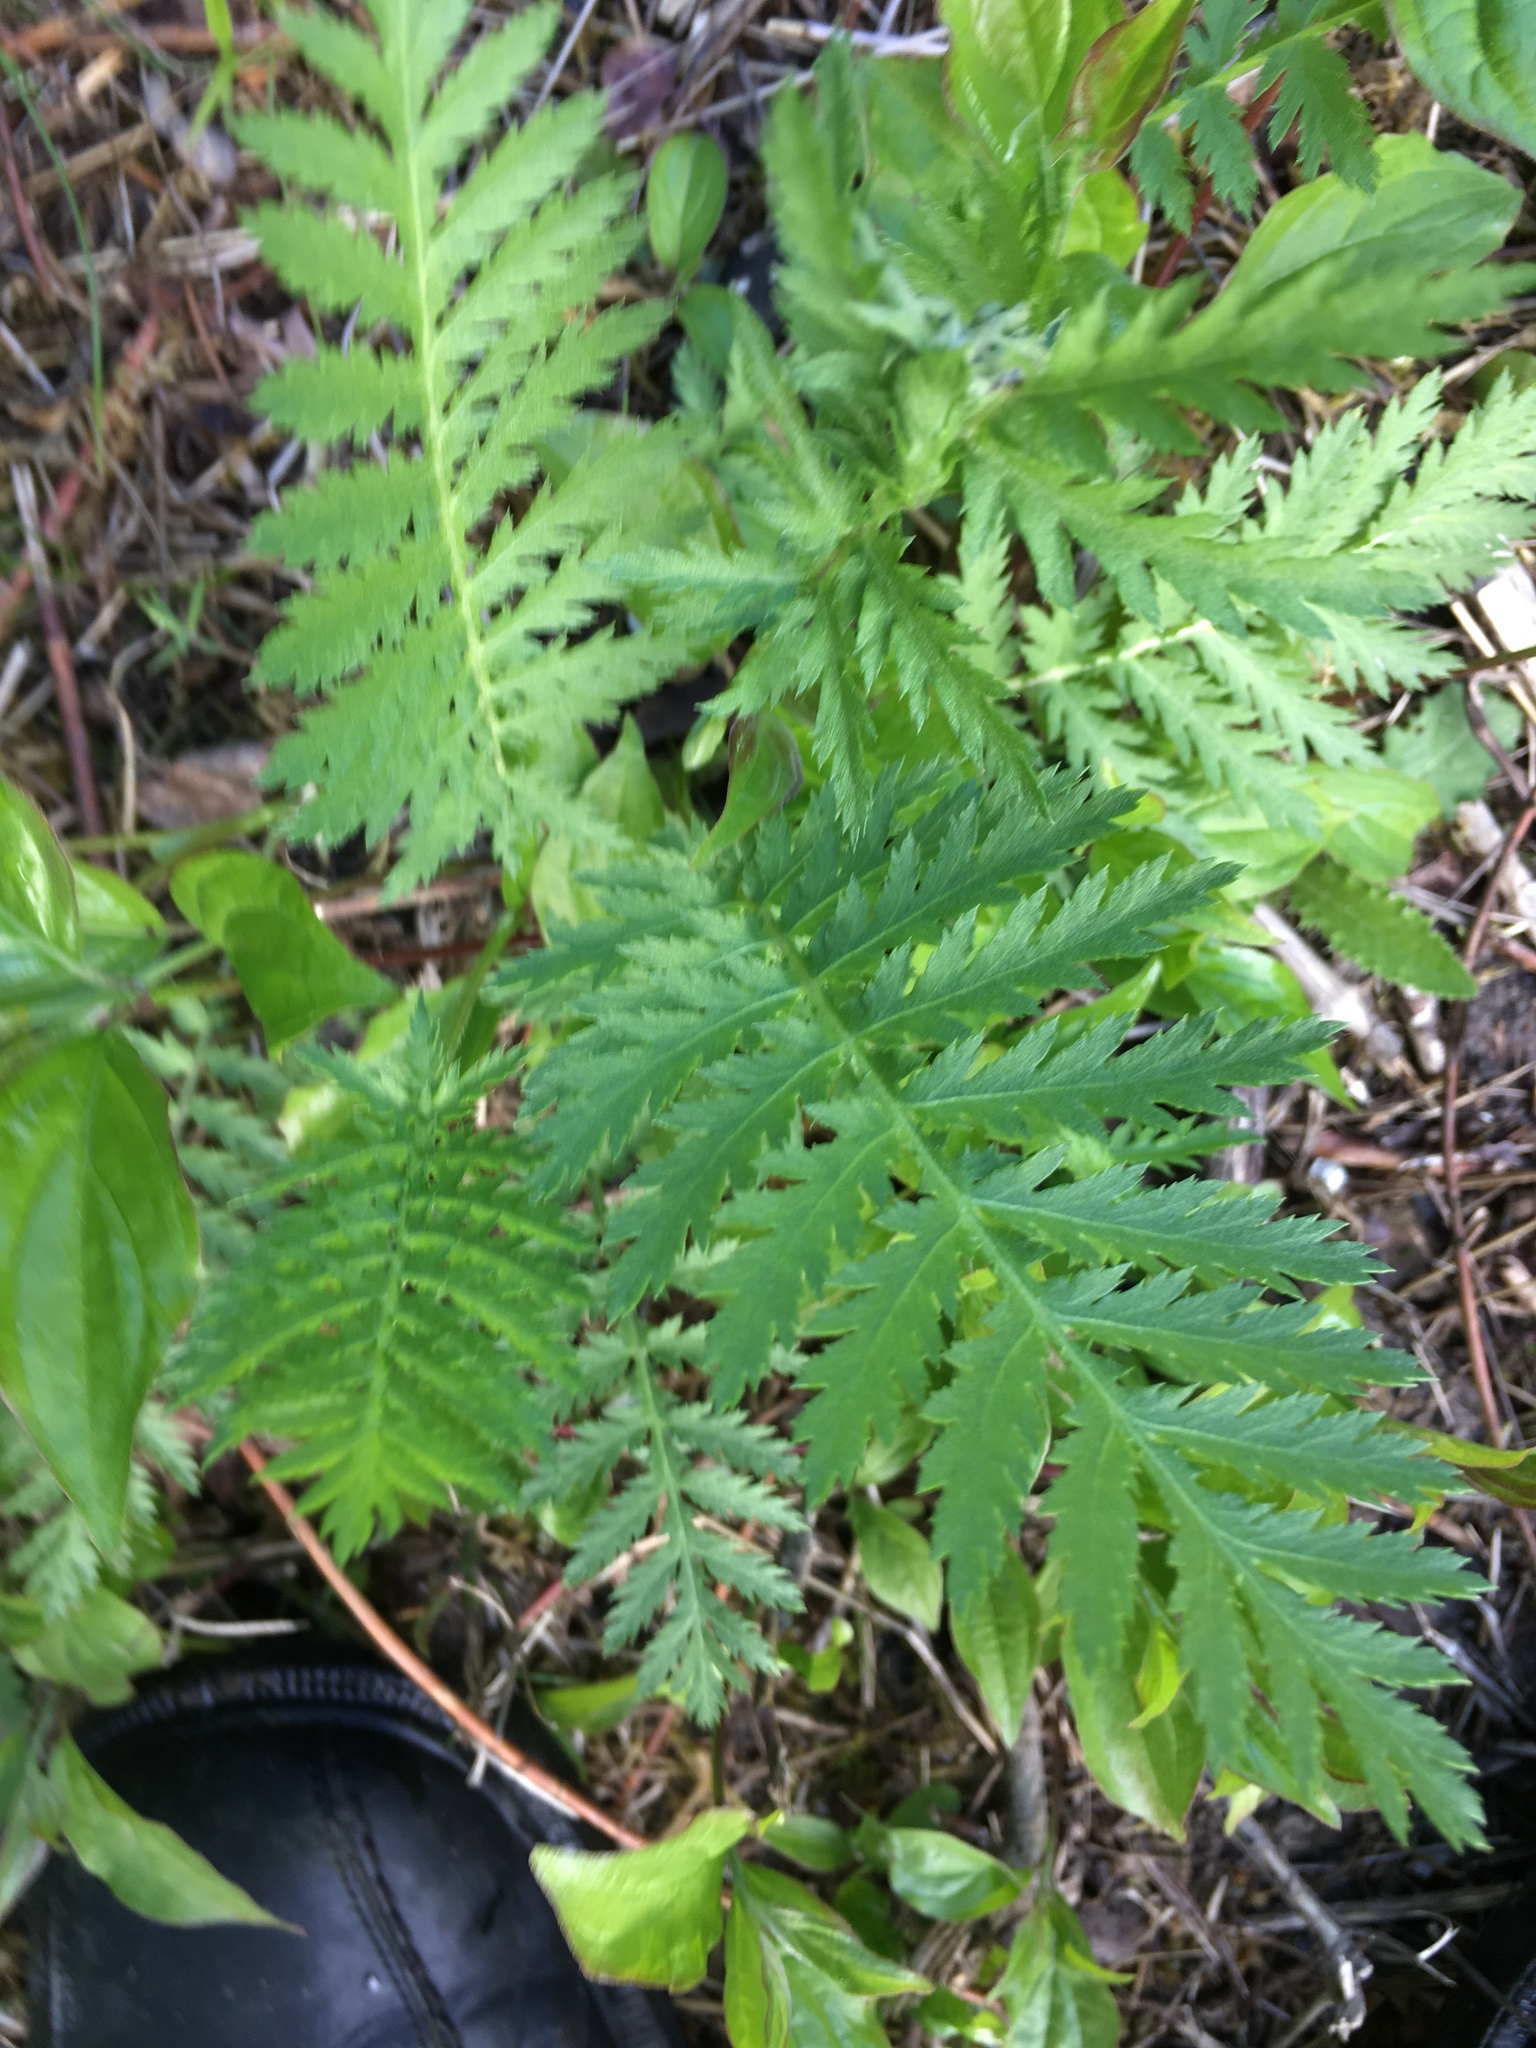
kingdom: Plantae
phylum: Tracheophyta
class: Magnoliopsida
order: Asterales
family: Asteraceae
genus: Tanacetum
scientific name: Tanacetum vulgare
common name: Common tansy
